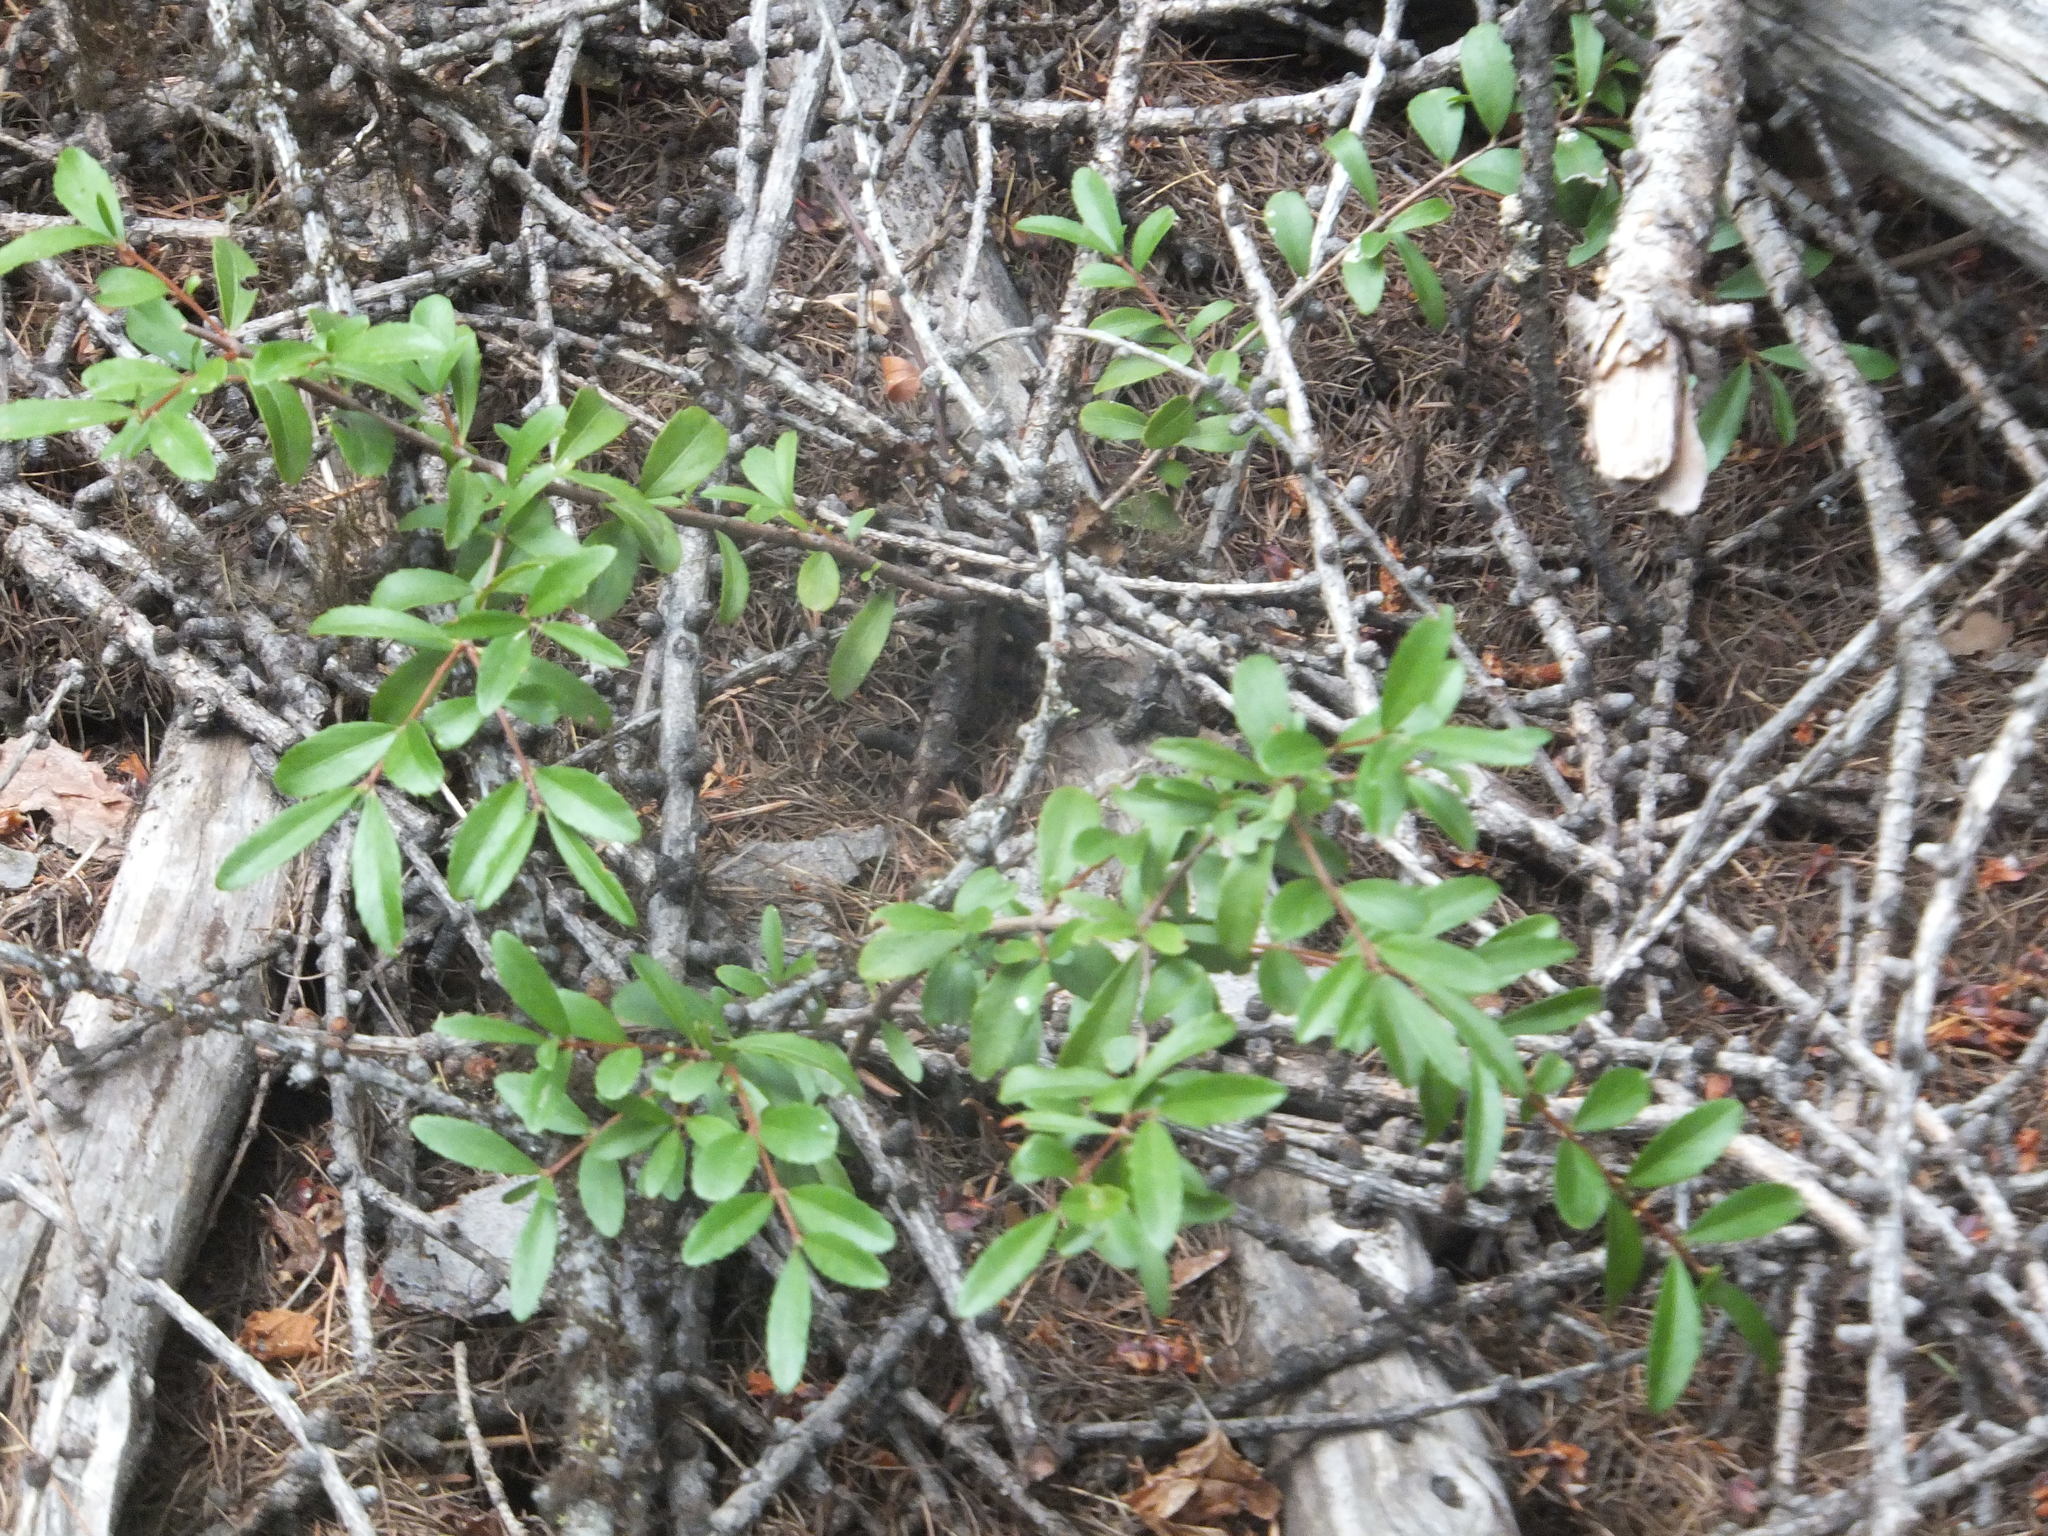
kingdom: Plantae
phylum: Tracheophyta
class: Magnoliopsida
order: Celastrales
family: Celastraceae
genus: Paxistima
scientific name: Paxistima myrsinites
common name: Mountain-lover
